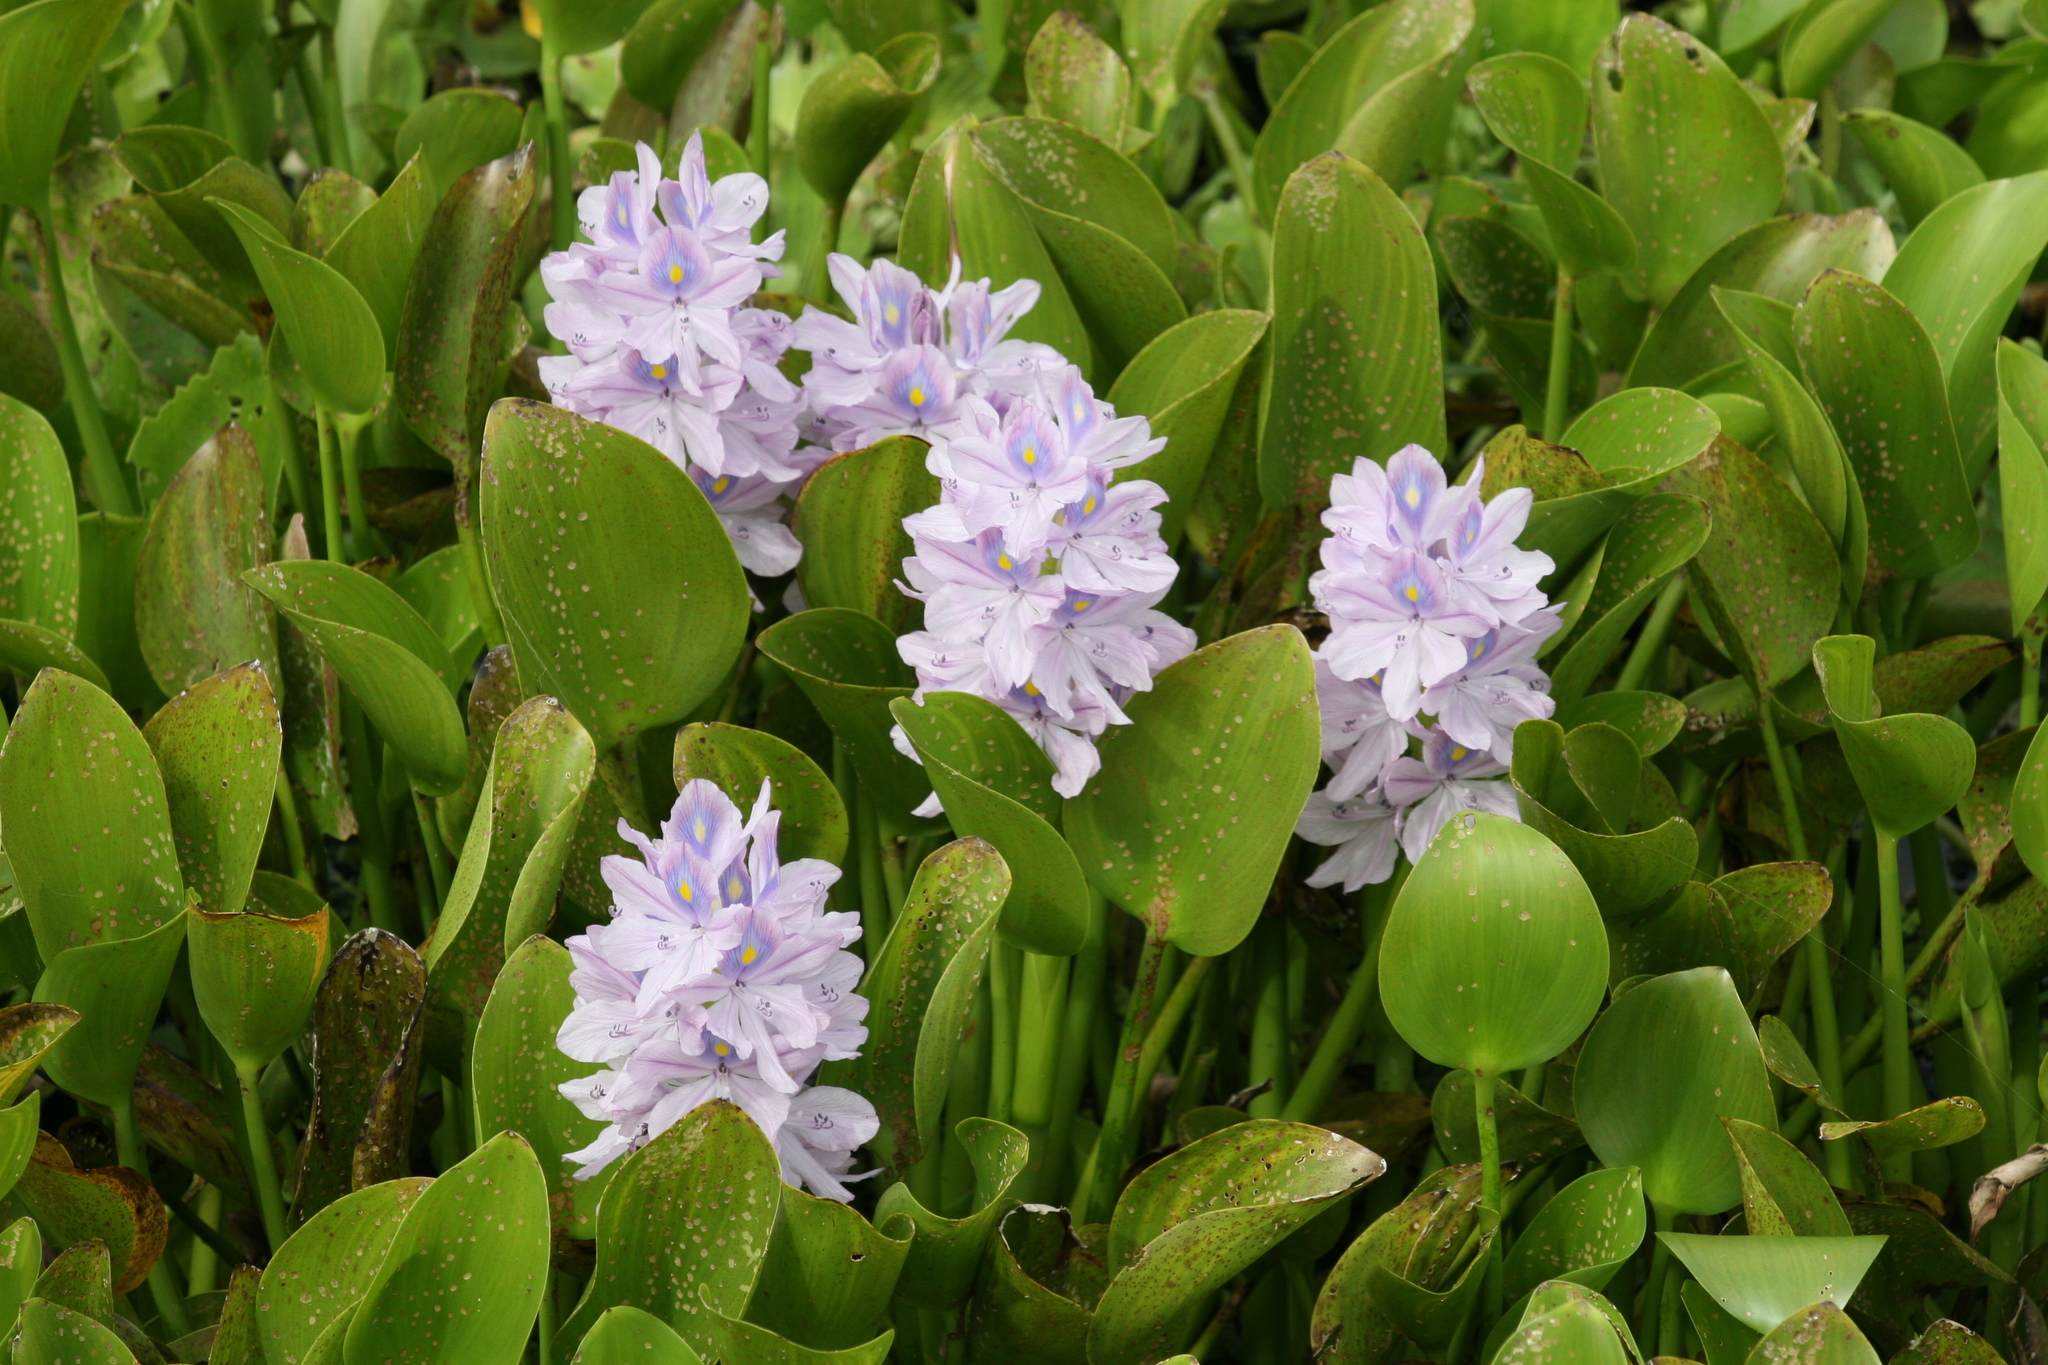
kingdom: Plantae
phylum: Tracheophyta
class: Liliopsida
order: Commelinales
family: Pontederiaceae
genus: Pontederia
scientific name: Pontederia crassipes
